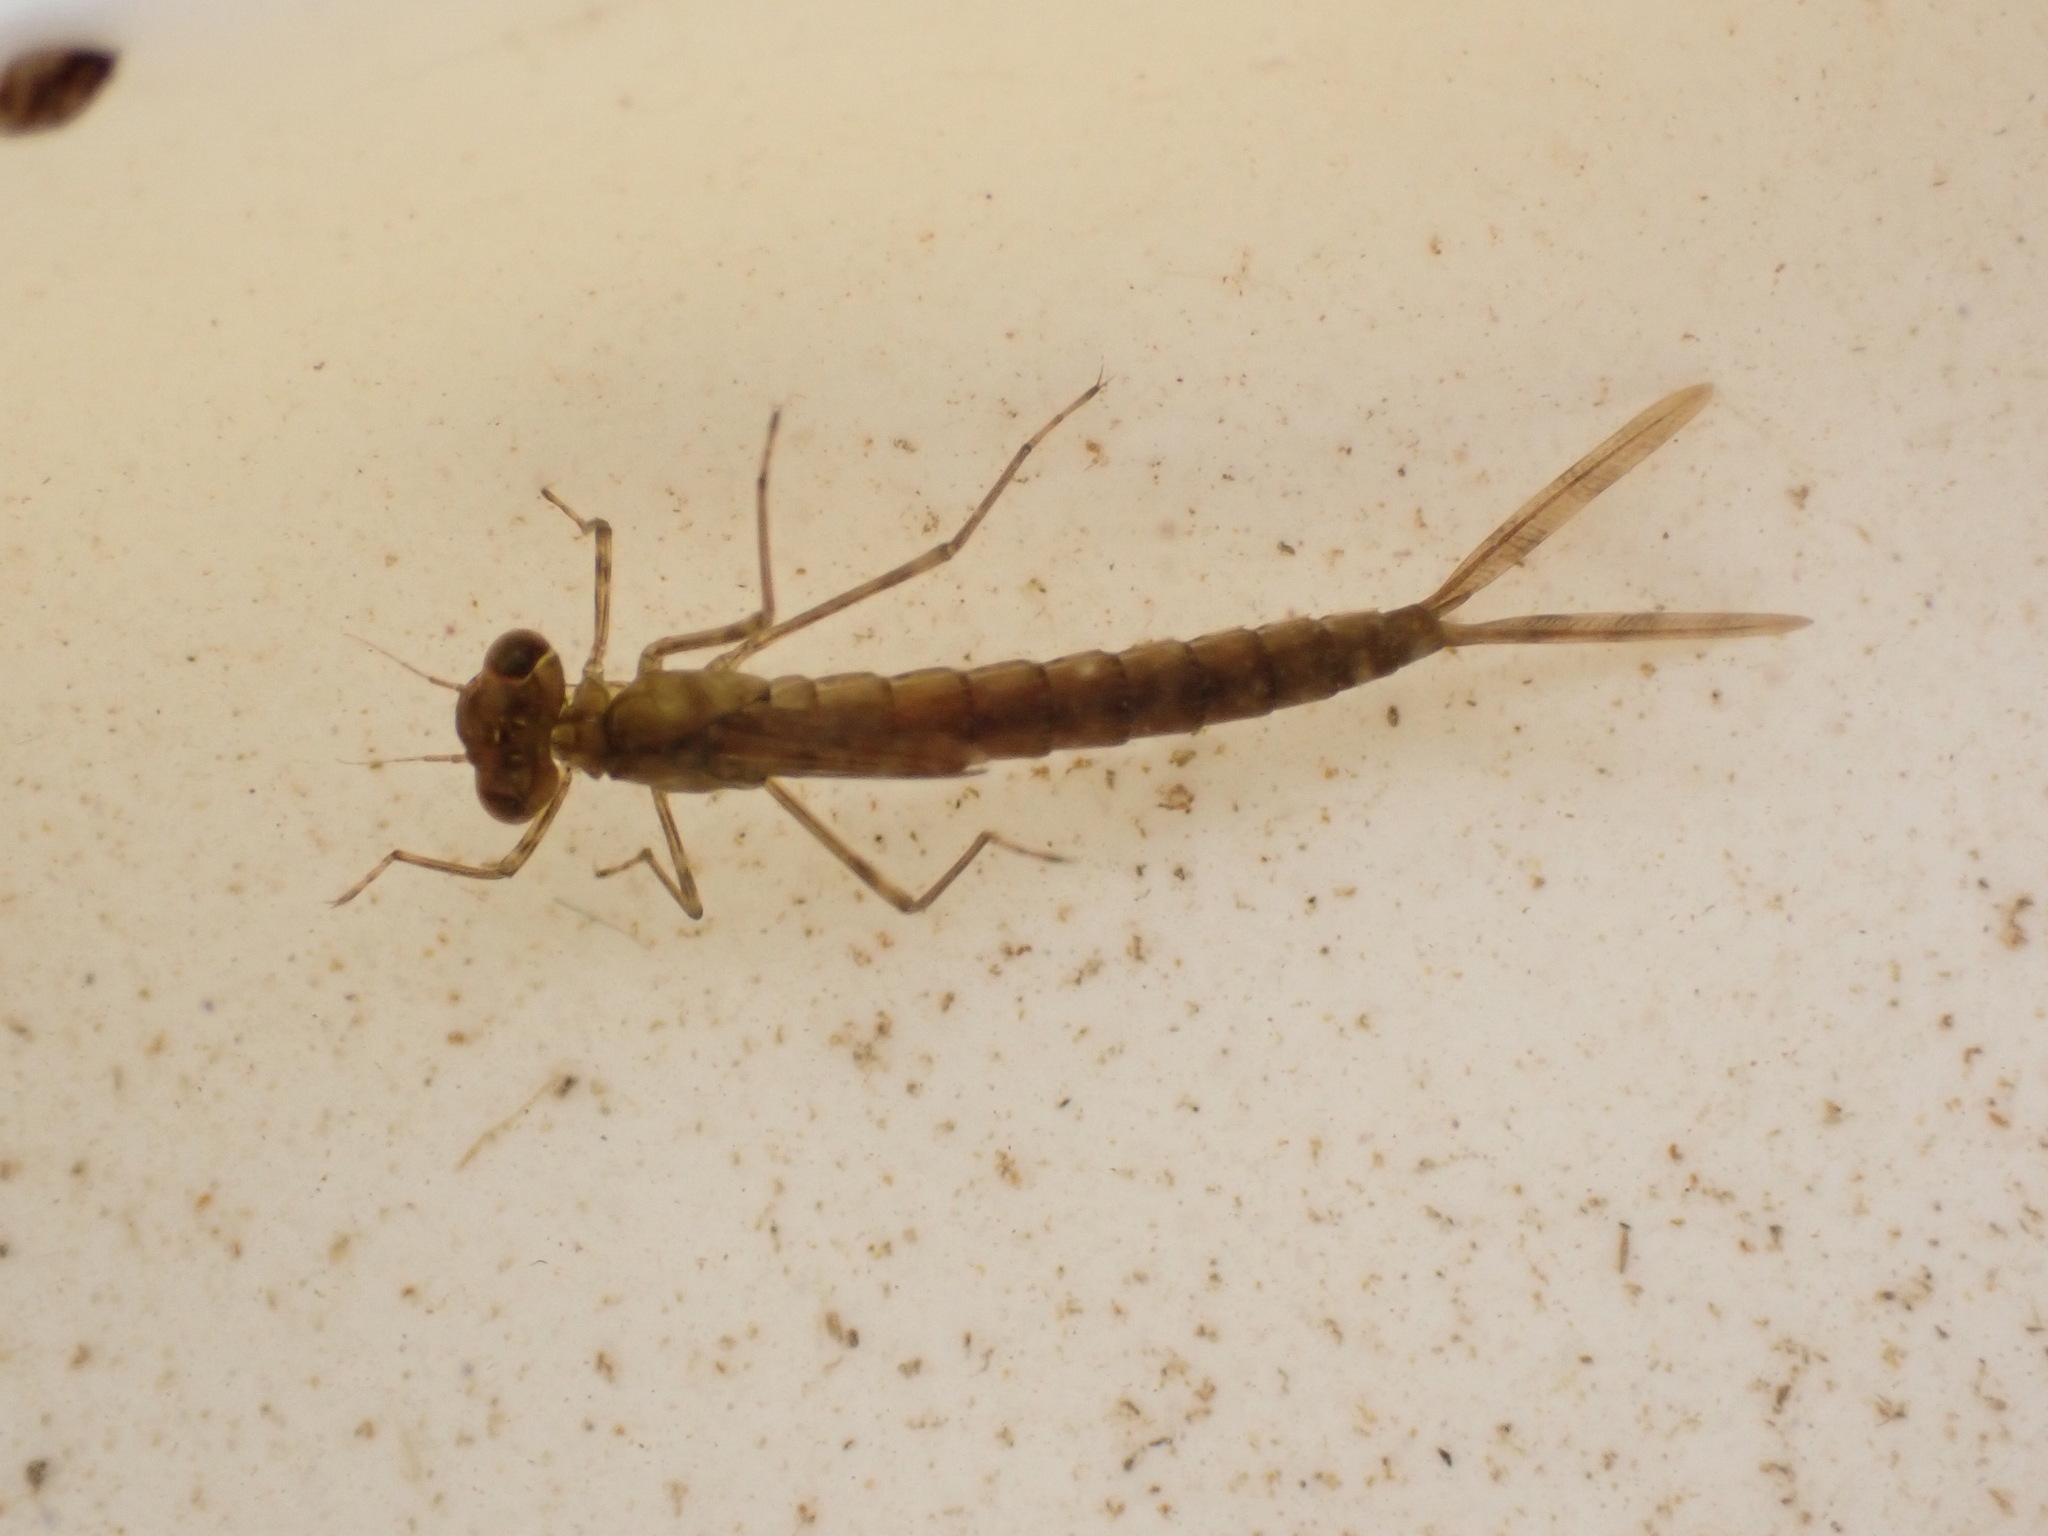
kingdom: Animalia
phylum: Arthropoda
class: Insecta
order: Odonata
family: Lestidae
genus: Austrolestes
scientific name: Austrolestes colensonis
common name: Blue damselfly
